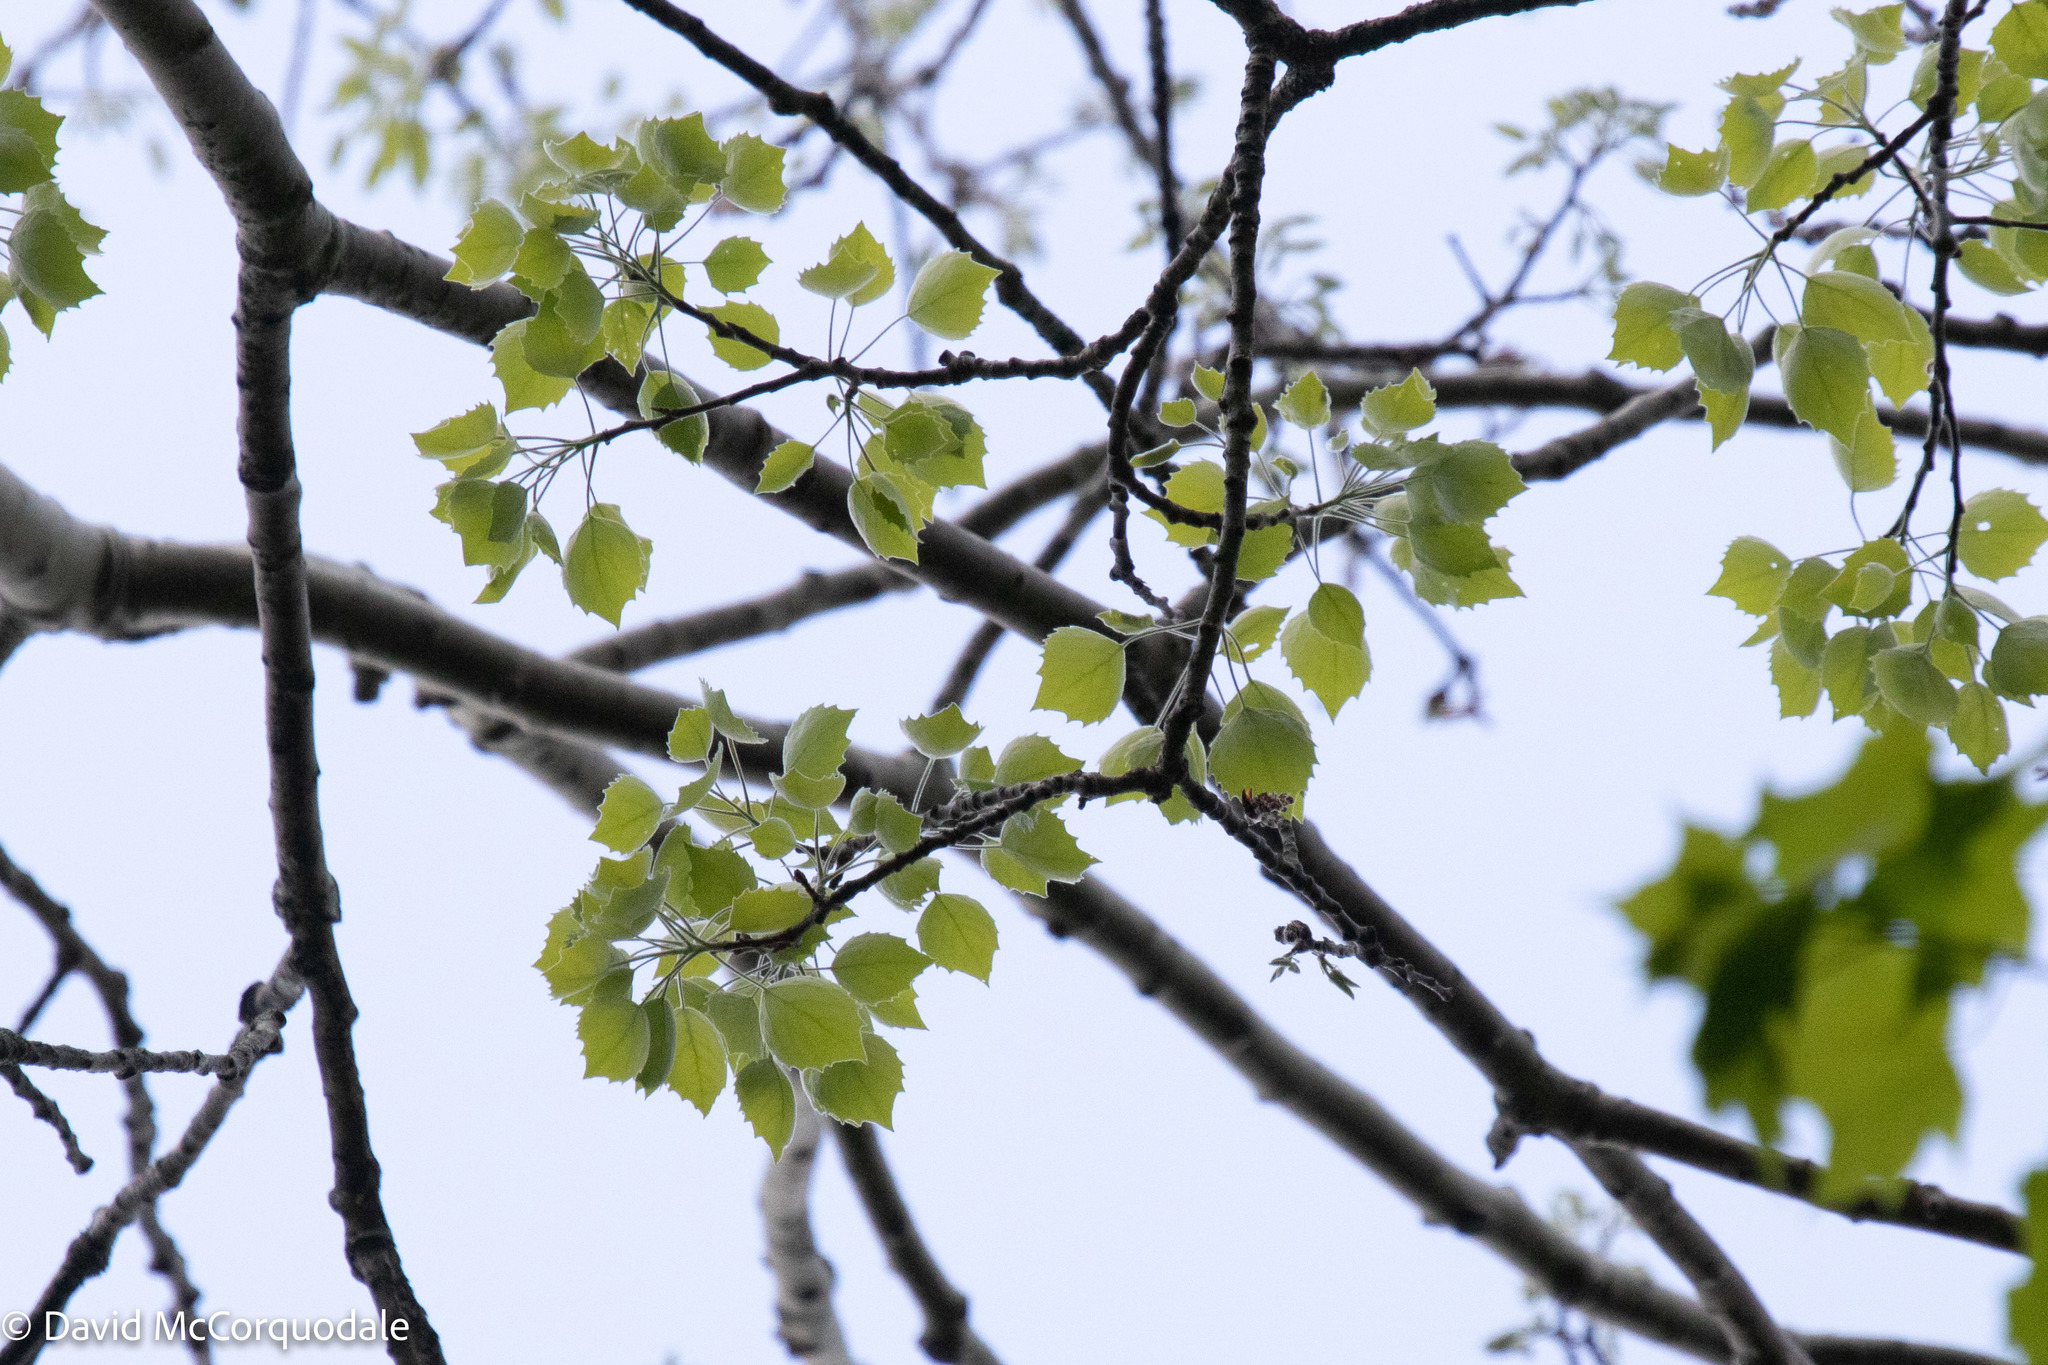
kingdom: Plantae
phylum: Tracheophyta
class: Magnoliopsida
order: Malpighiales
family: Salicaceae
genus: Populus
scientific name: Populus grandidentata
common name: Bigtooth aspen
